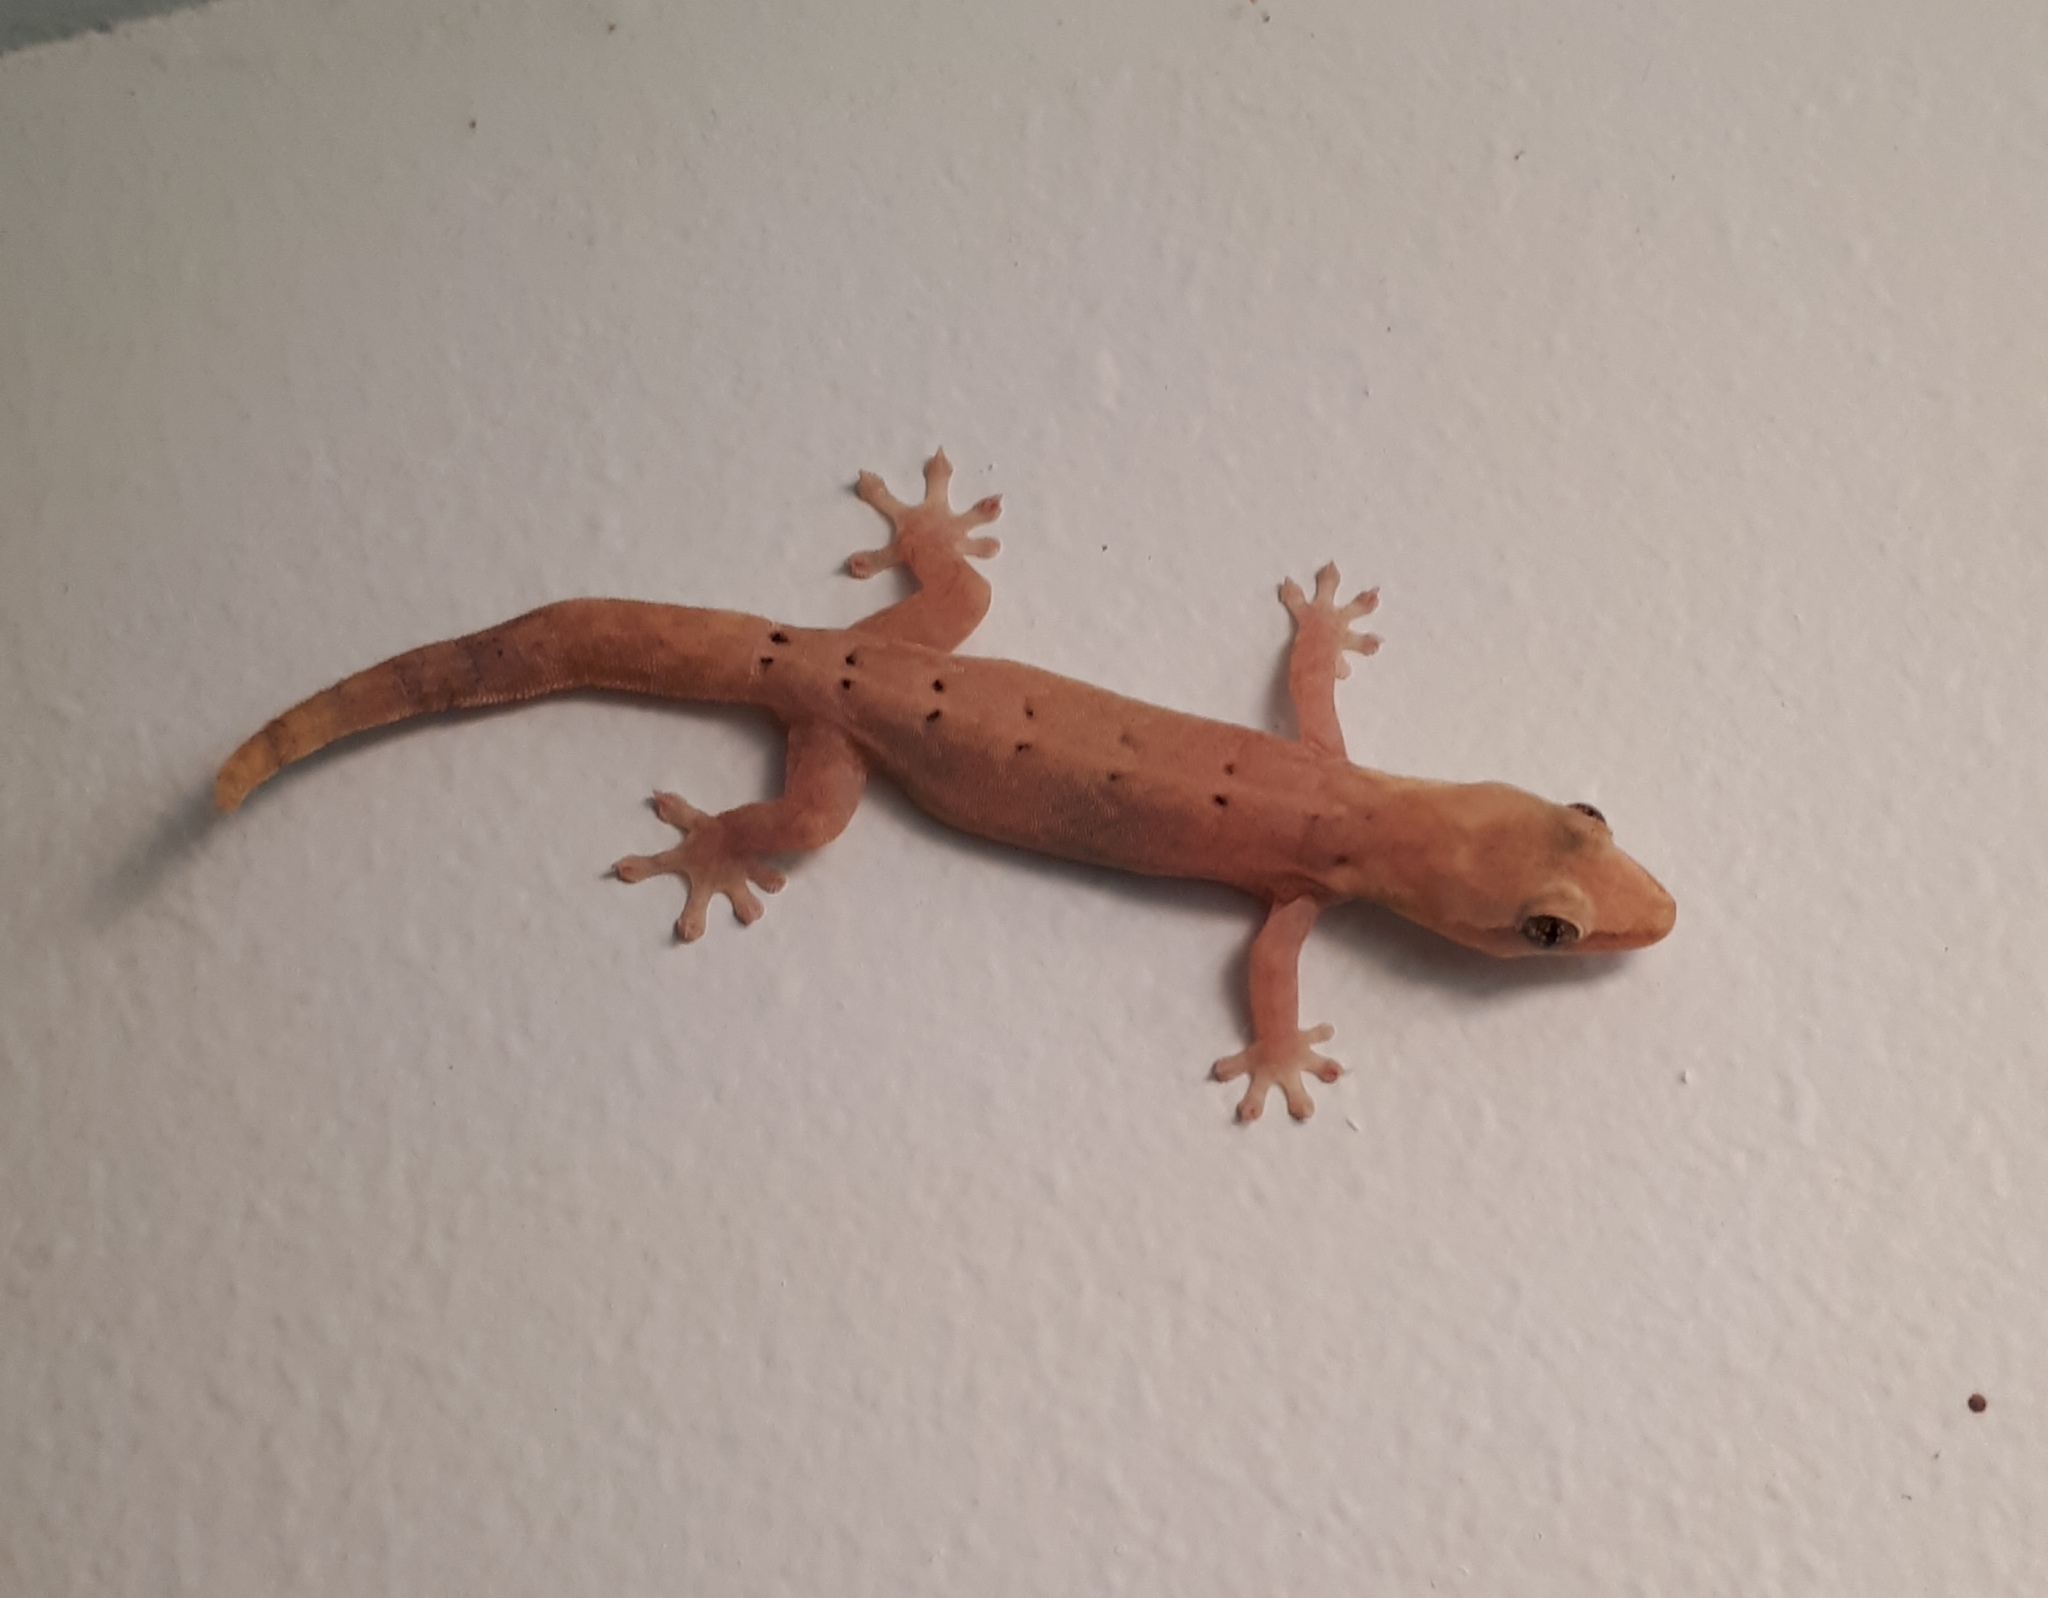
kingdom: Animalia
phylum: Chordata
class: Squamata
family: Gekkonidae
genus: Lepidodactylus
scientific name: Lepidodactylus lugubris
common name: Mourning gecko
